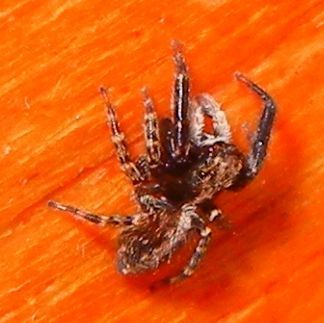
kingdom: Animalia
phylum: Arthropoda
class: Arachnida
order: Araneae
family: Salticidae
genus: Pseudeuophrys
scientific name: Pseudeuophrys lanigera
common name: Jumping spider
